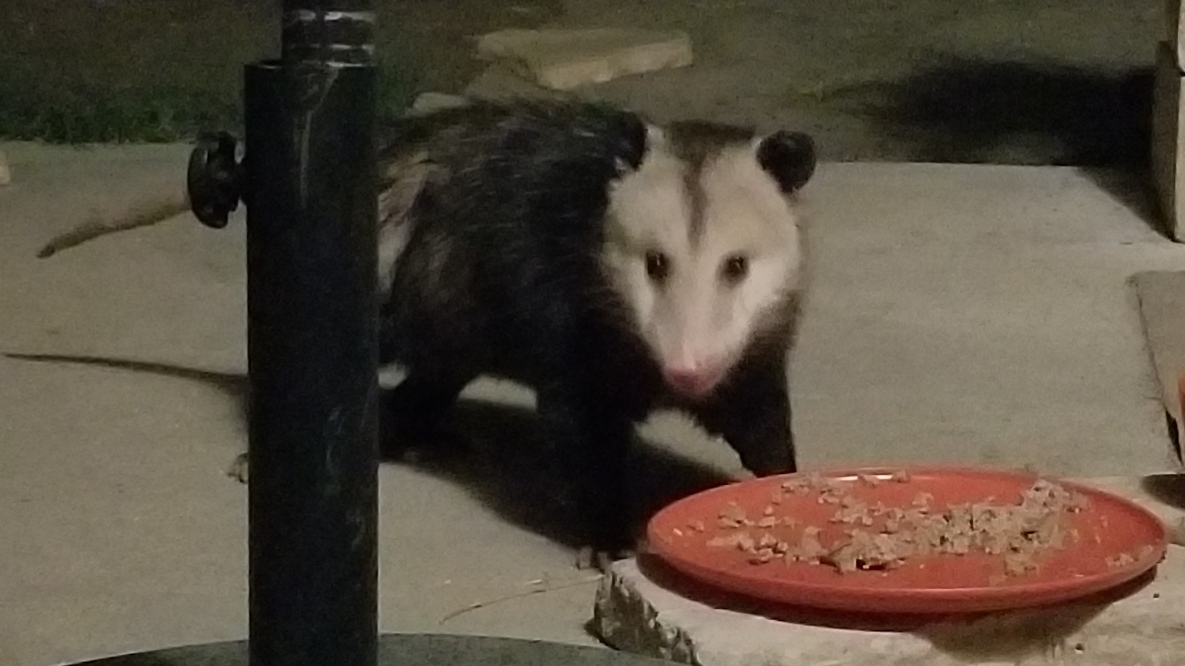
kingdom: Animalia
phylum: Chordata
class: Mammalia
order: Didelphimorphia
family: Didelphidae
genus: Didelphis
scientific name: Didelphis virginiana
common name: Virginia opossum
